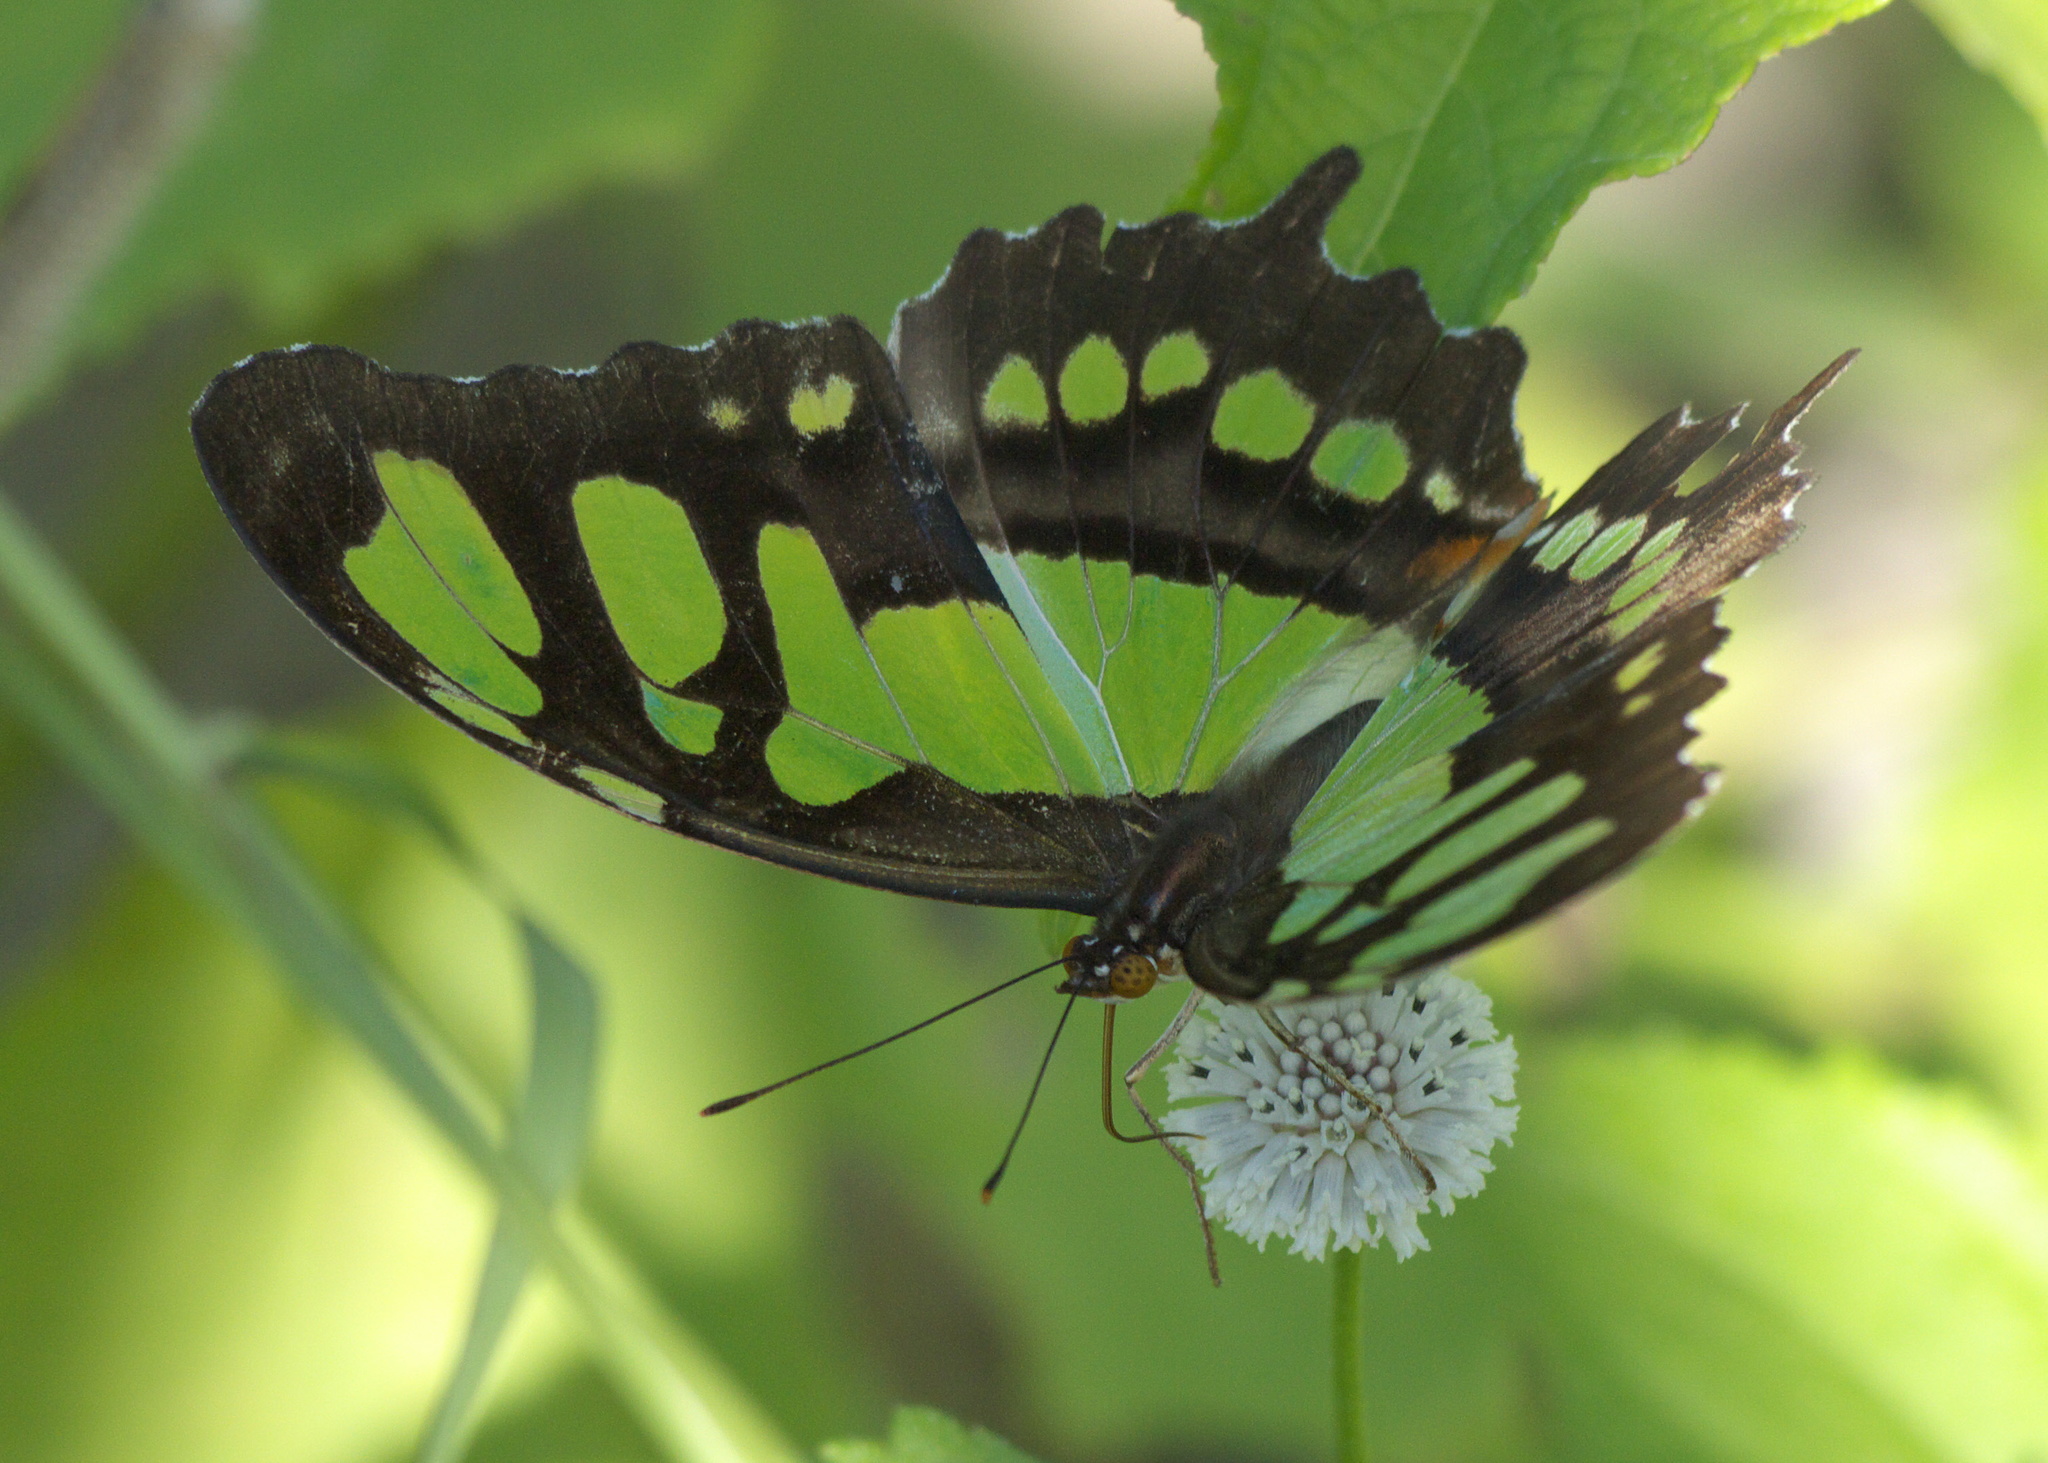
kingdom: Animalia
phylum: Arthropoda
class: Insecta
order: Lepidoptera
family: Nymphalidae
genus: Siproeta
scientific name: Siproeta stelenes
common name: Malachite
